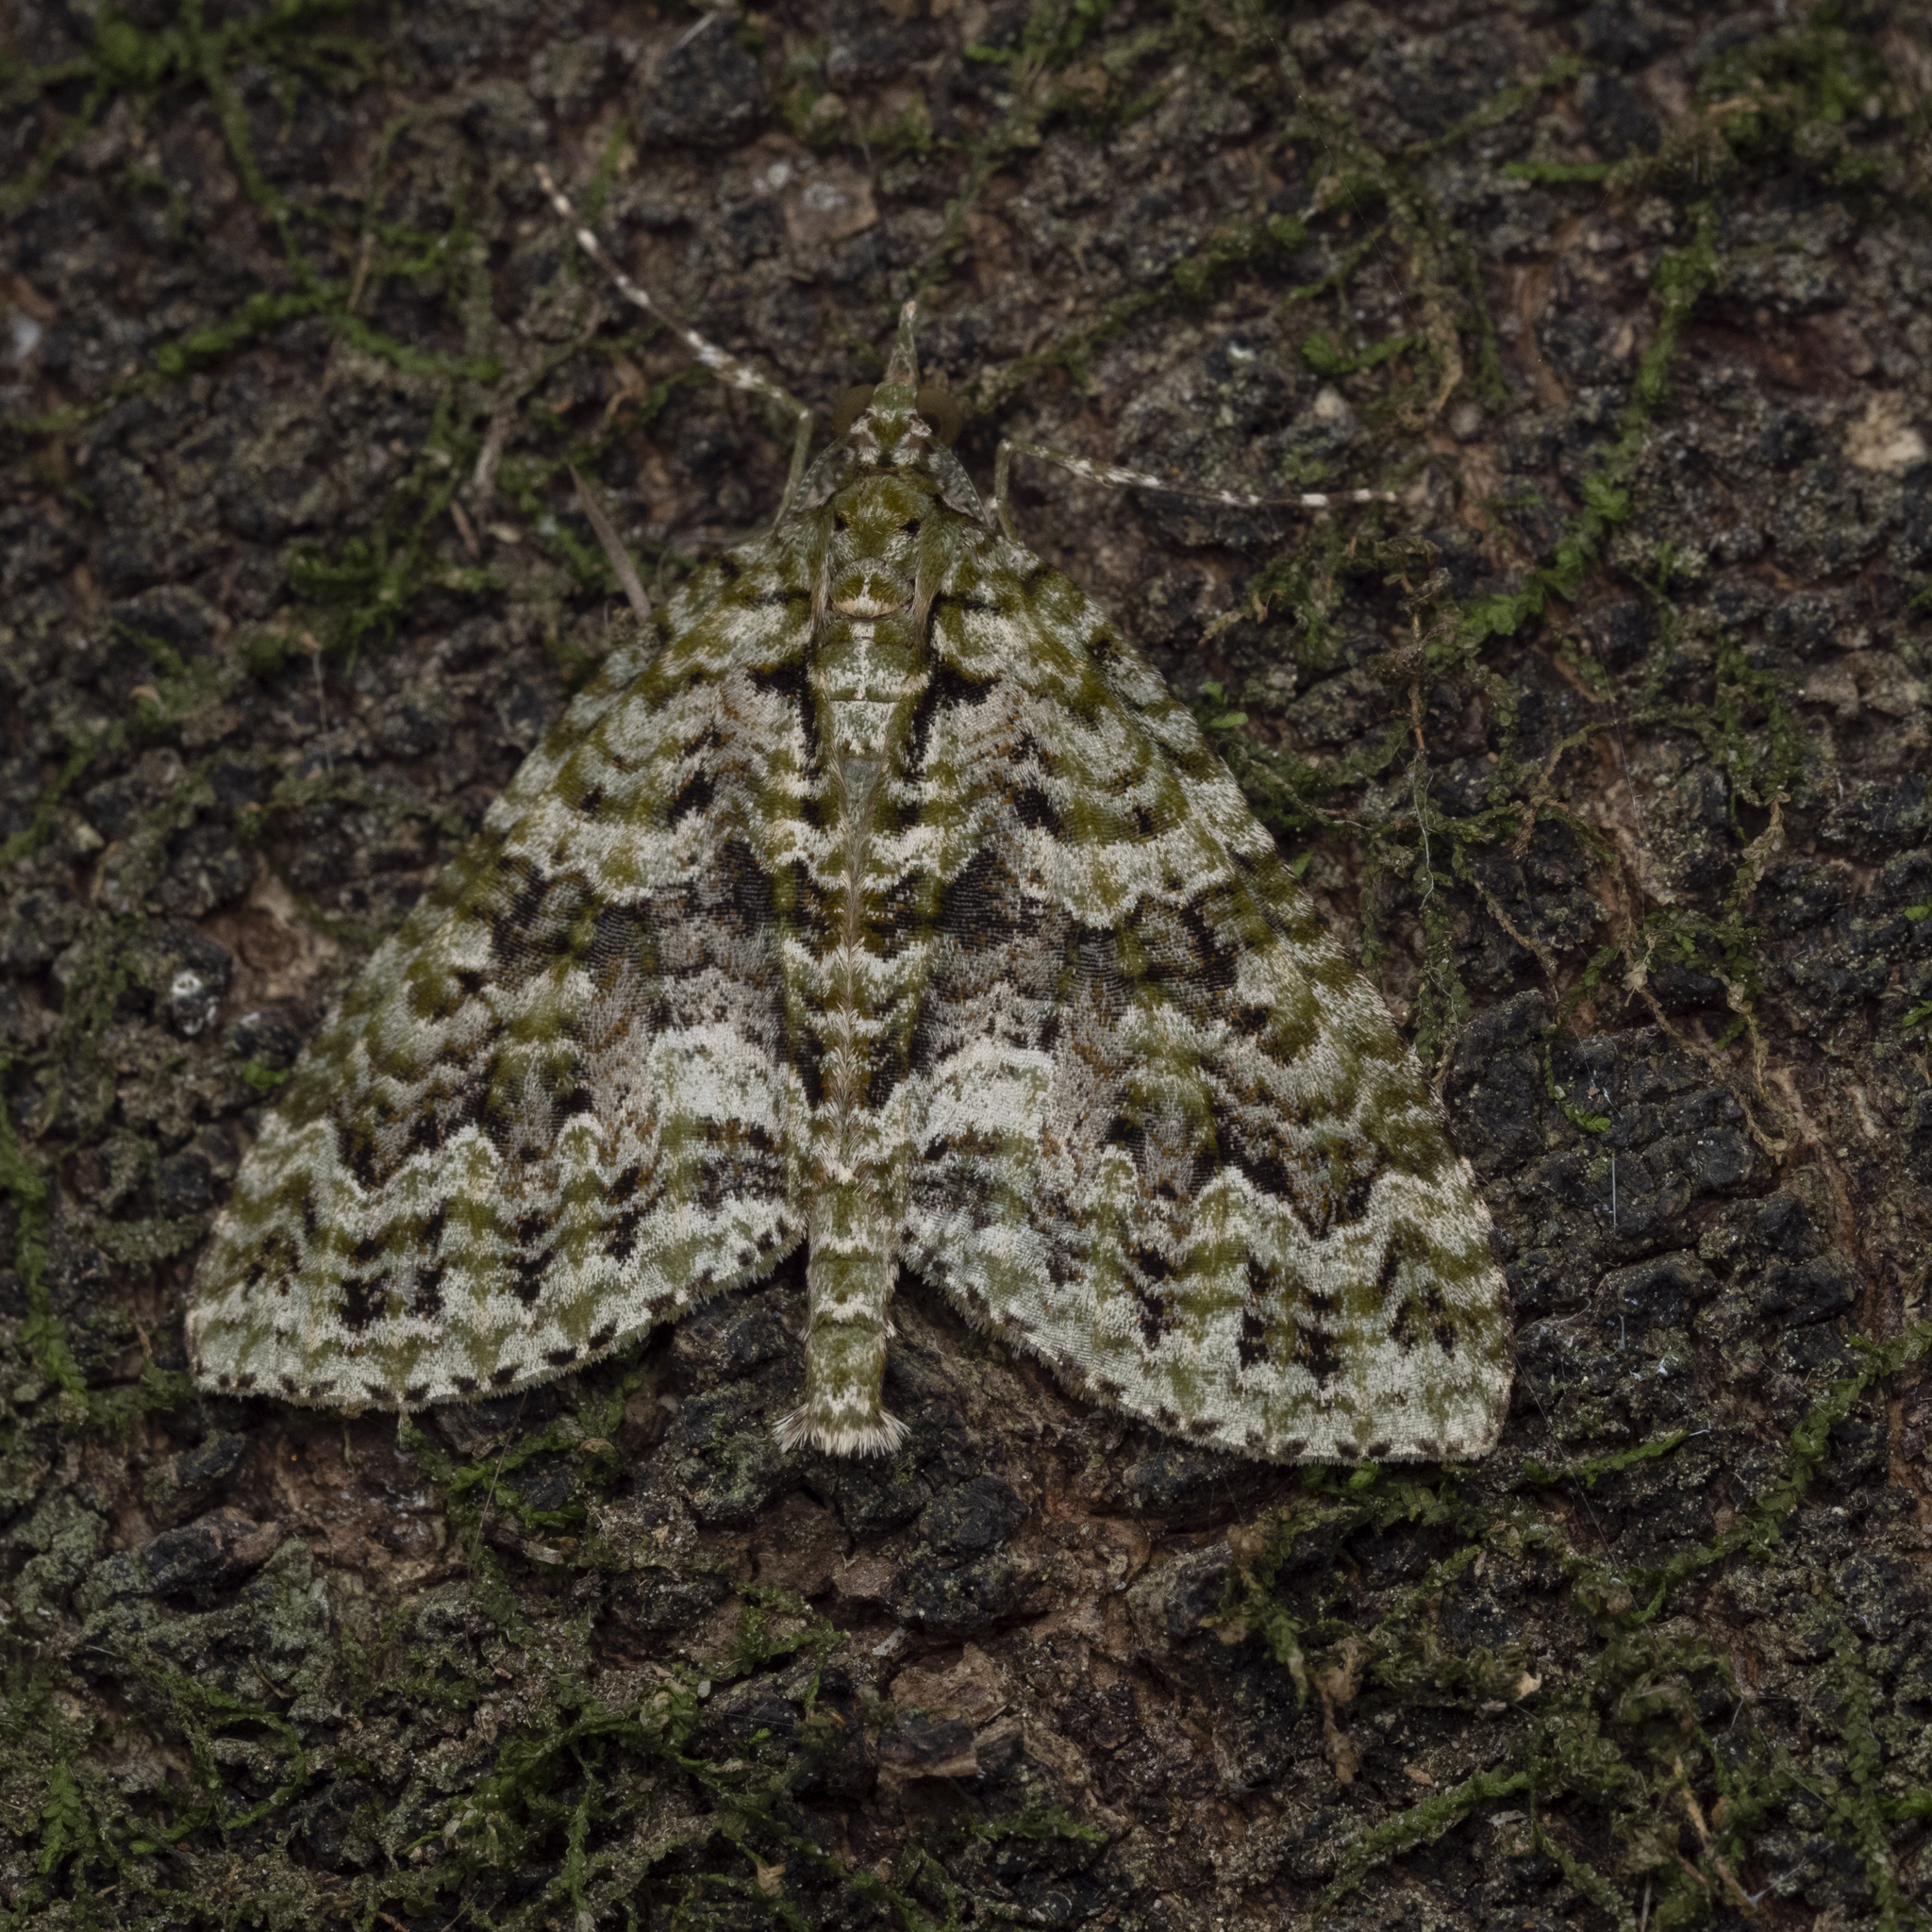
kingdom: Animalia
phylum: Arthropoda
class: Insecta
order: Lepidoptera
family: Geometridae
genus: Tatosoma
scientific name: Tatosoma agrionata
